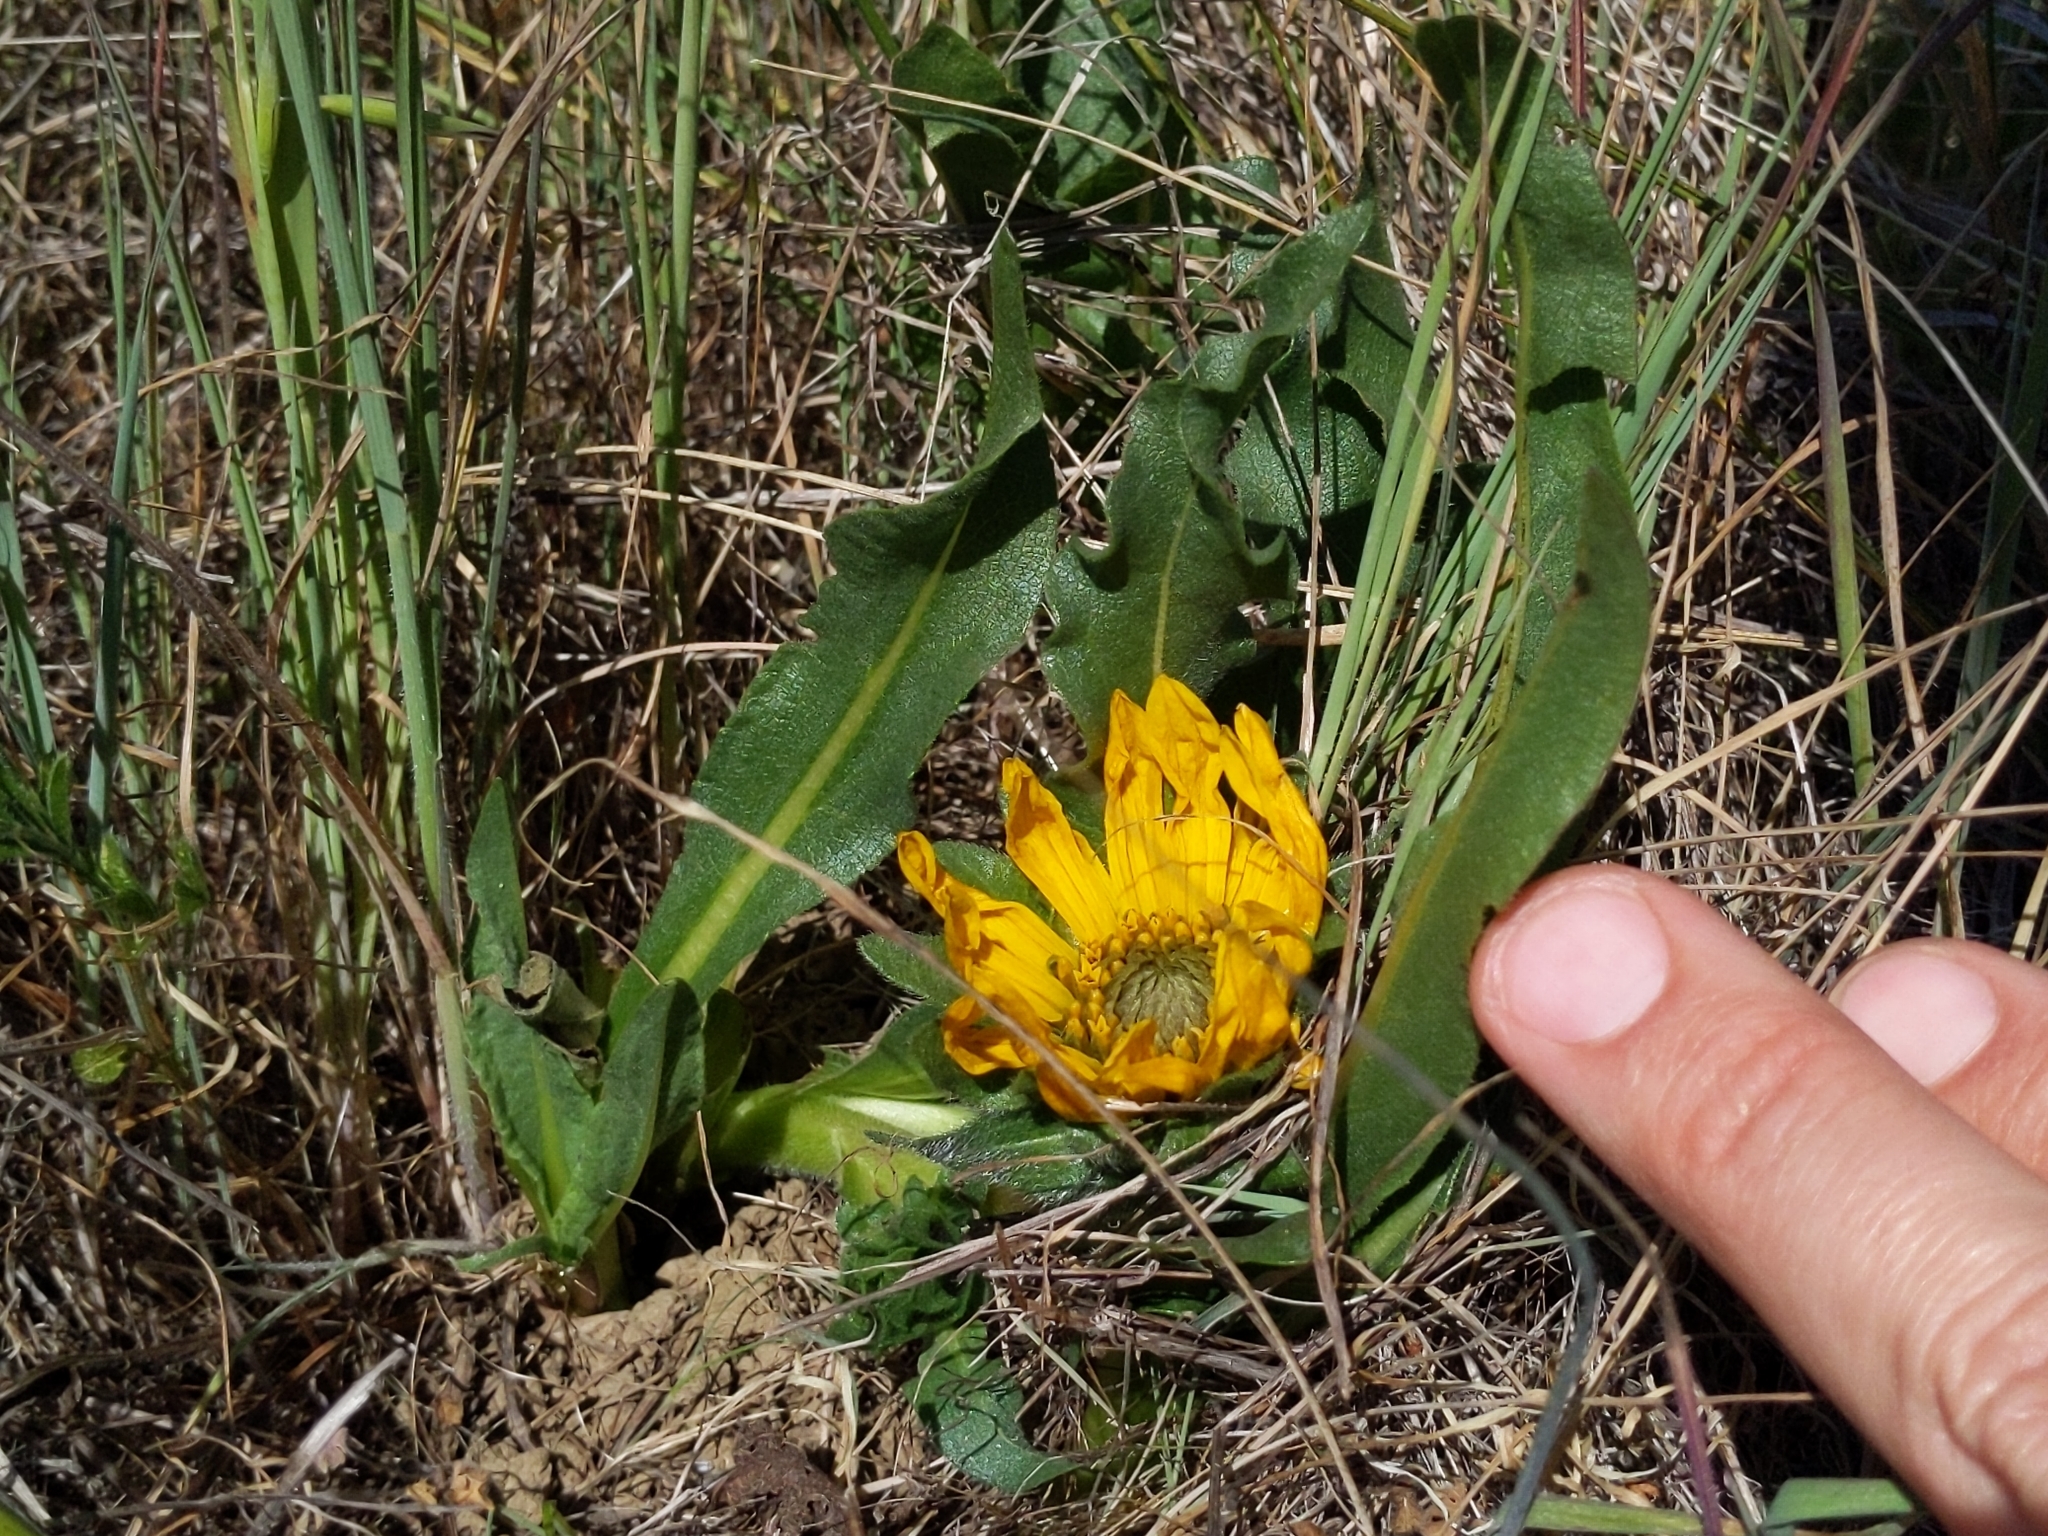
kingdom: Plantae
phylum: Tracheophyta
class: Magnoliopsida
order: Asterales
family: Asteraceae
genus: Wyethia
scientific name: Wyethia angustifolia
